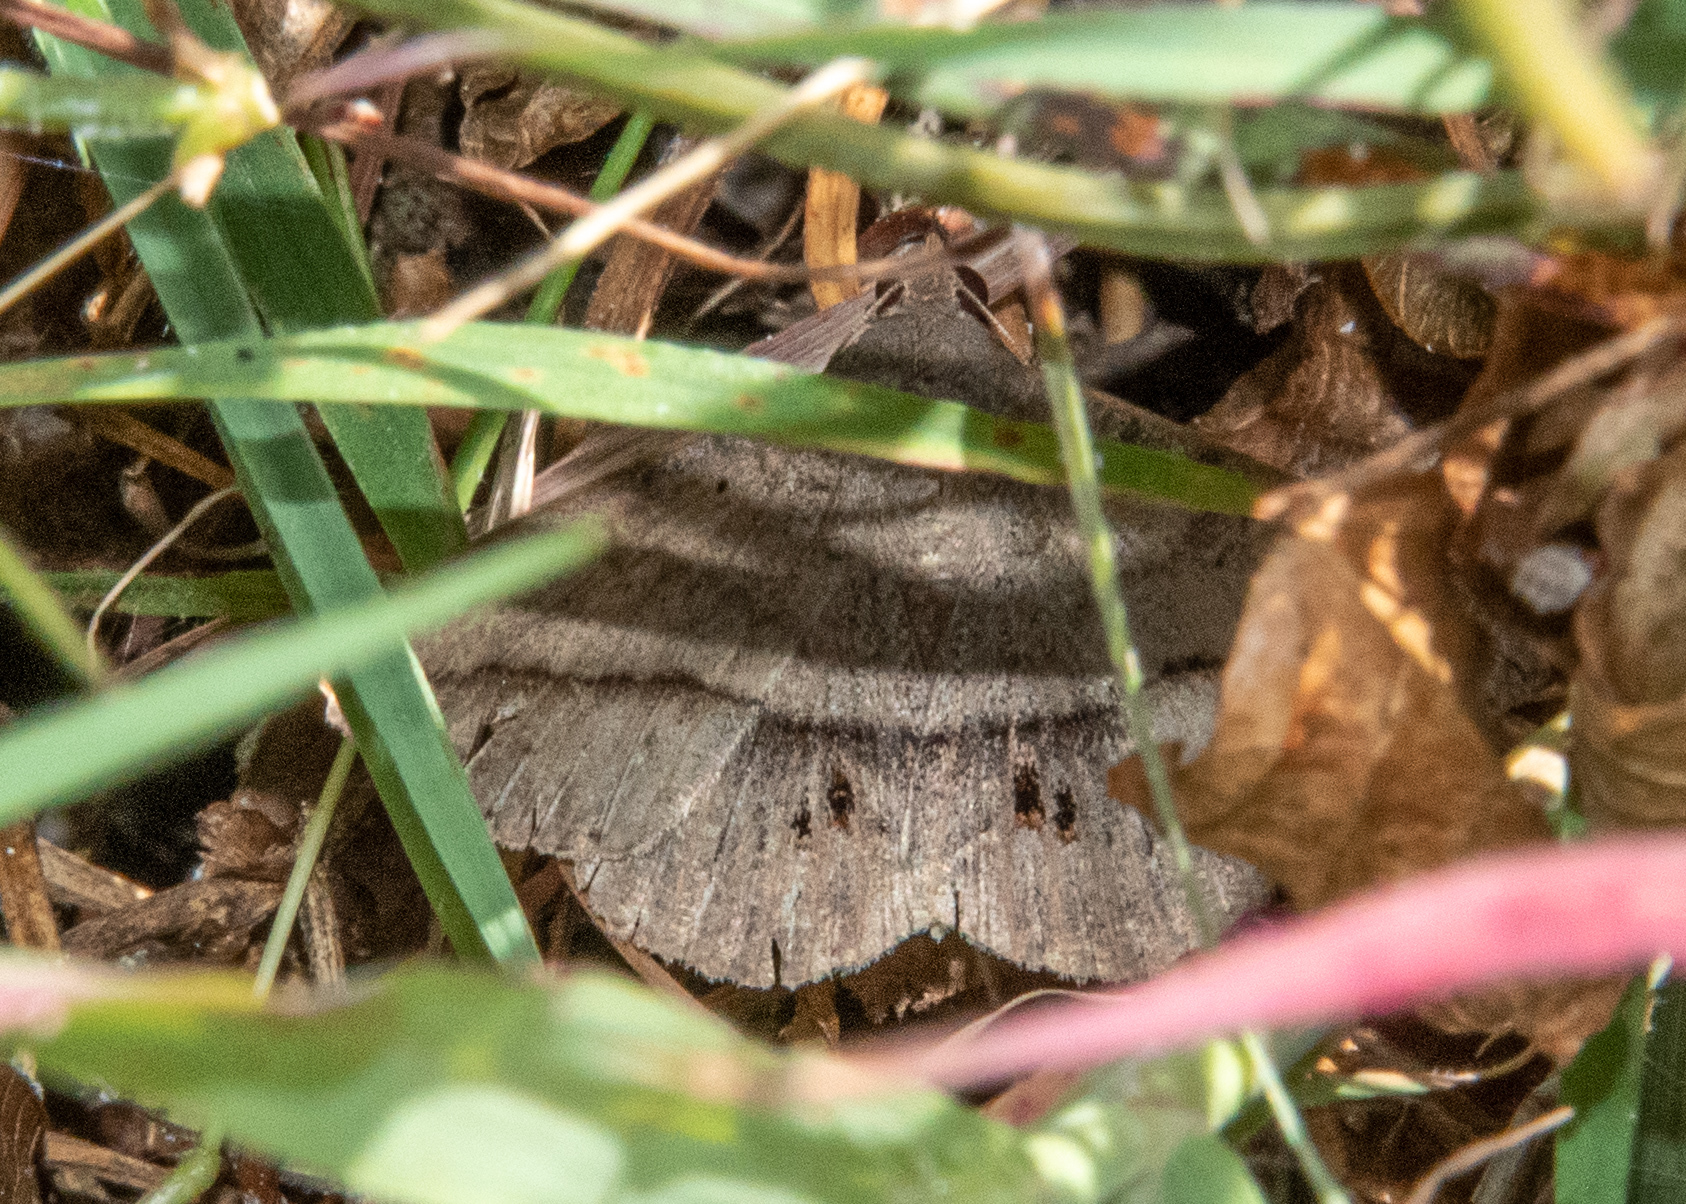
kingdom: Animalia
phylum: Arthropoda
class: Insecta
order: Lepidoptera
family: Erebidae
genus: Anticarsia
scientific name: Anticarsia gemmatalis
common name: Cutworm moth
